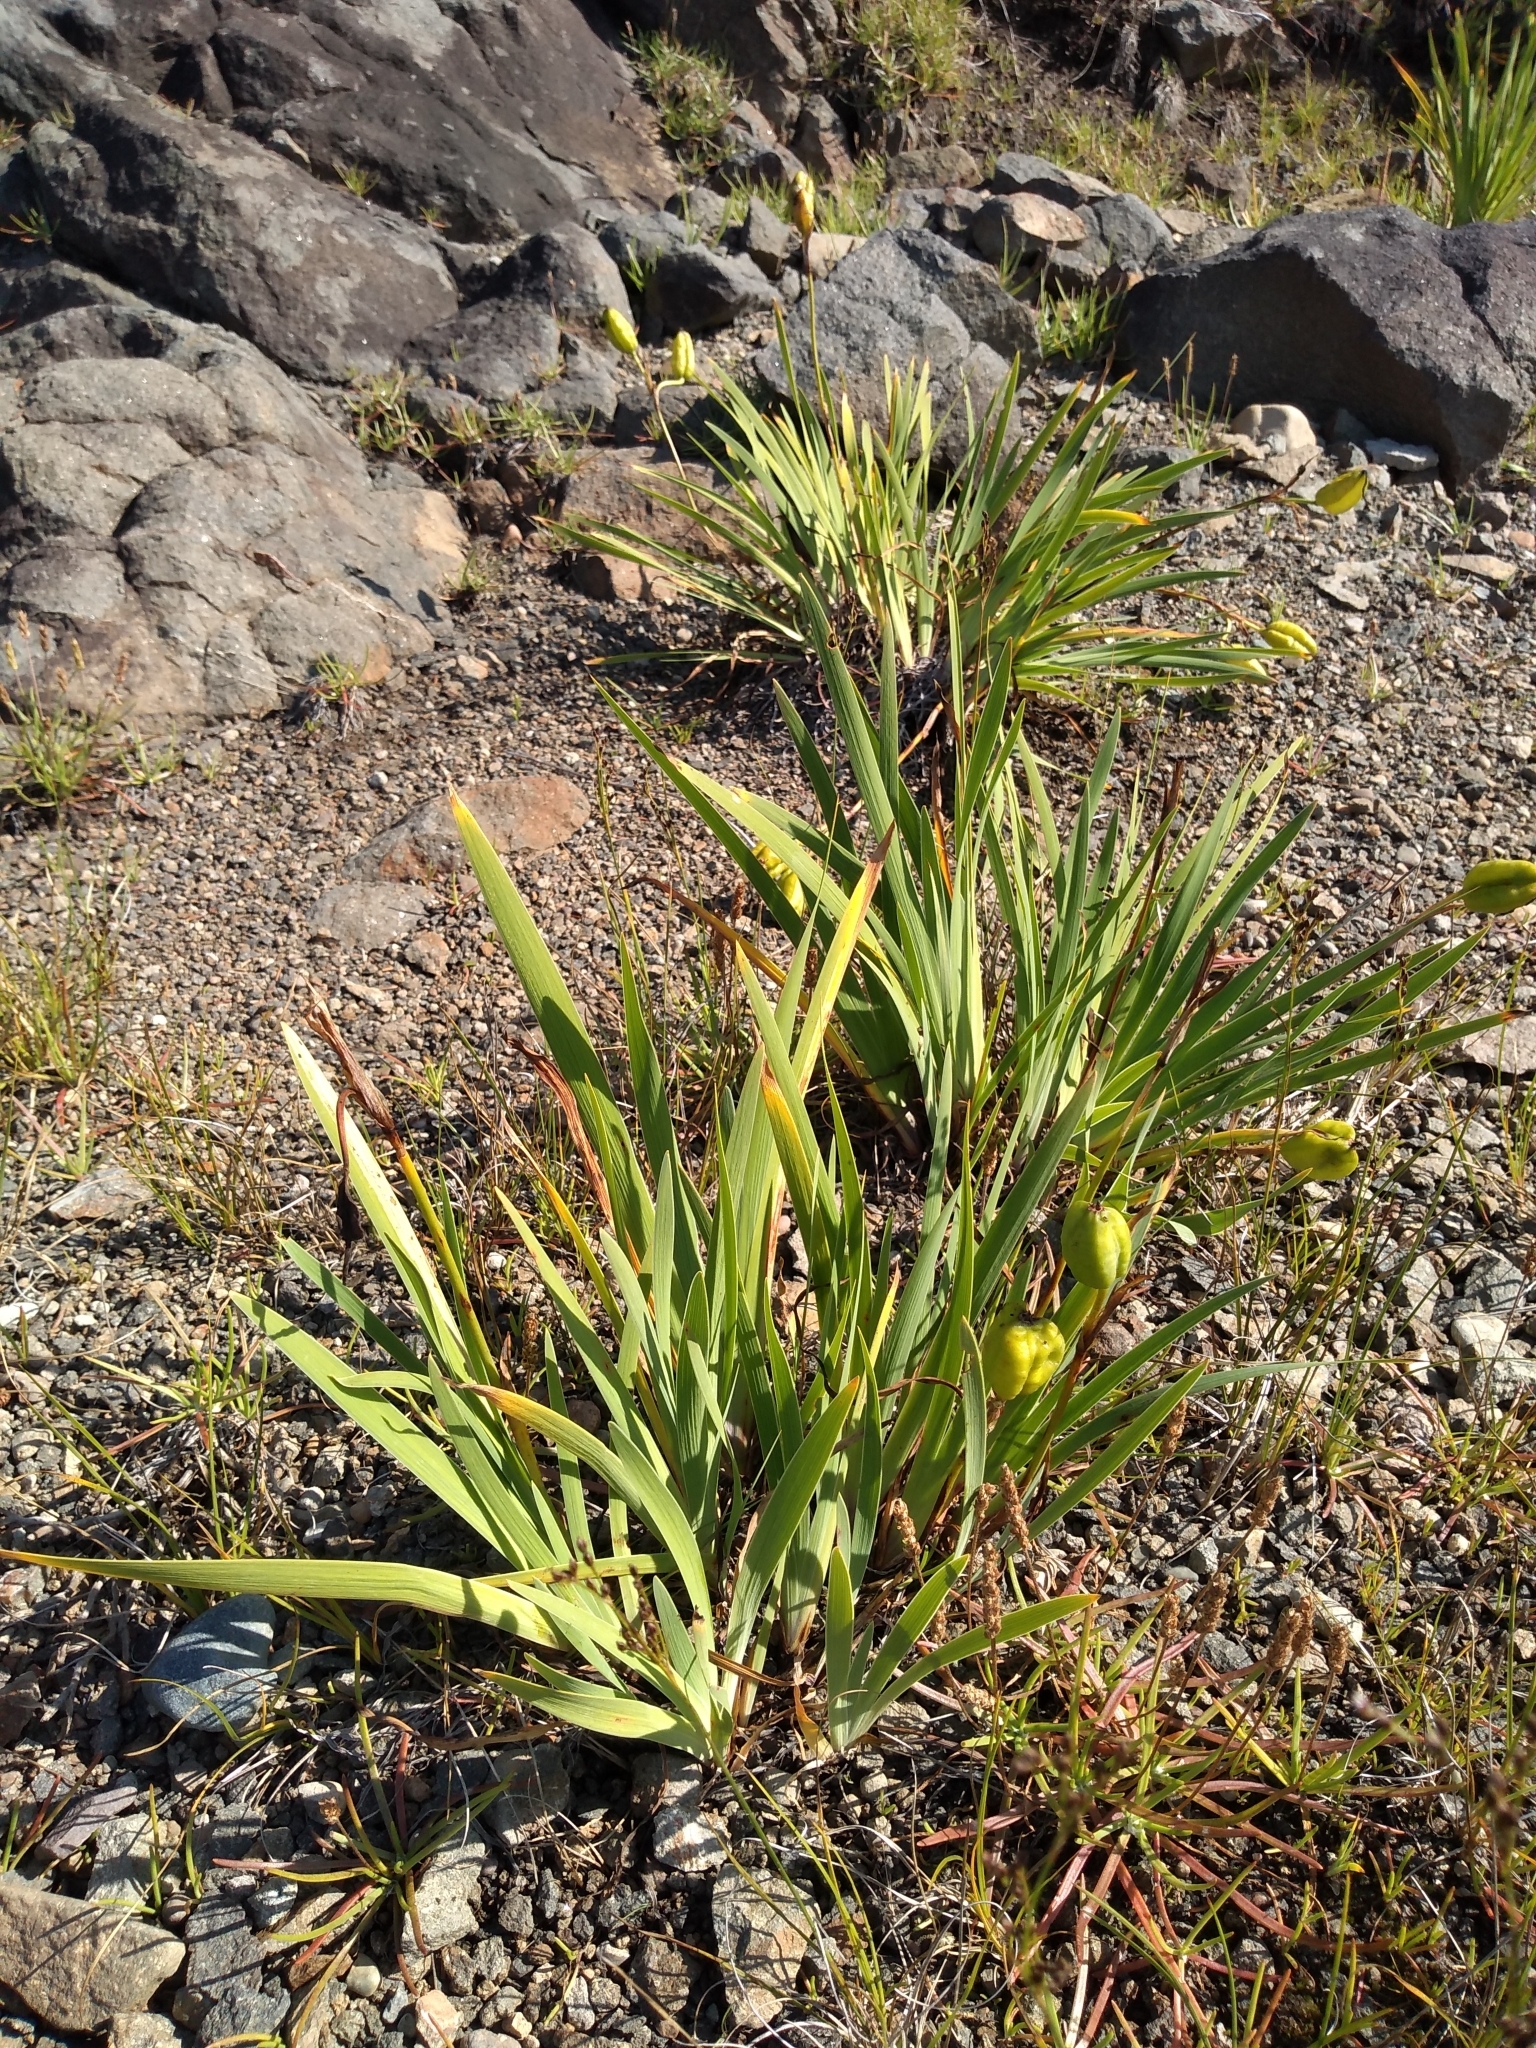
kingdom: Plantae
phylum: Tracheophyta
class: Liliopsida
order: Asparagales
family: Iridaceae
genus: Iris
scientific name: Iris hookeri
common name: Canada beach-head iris
